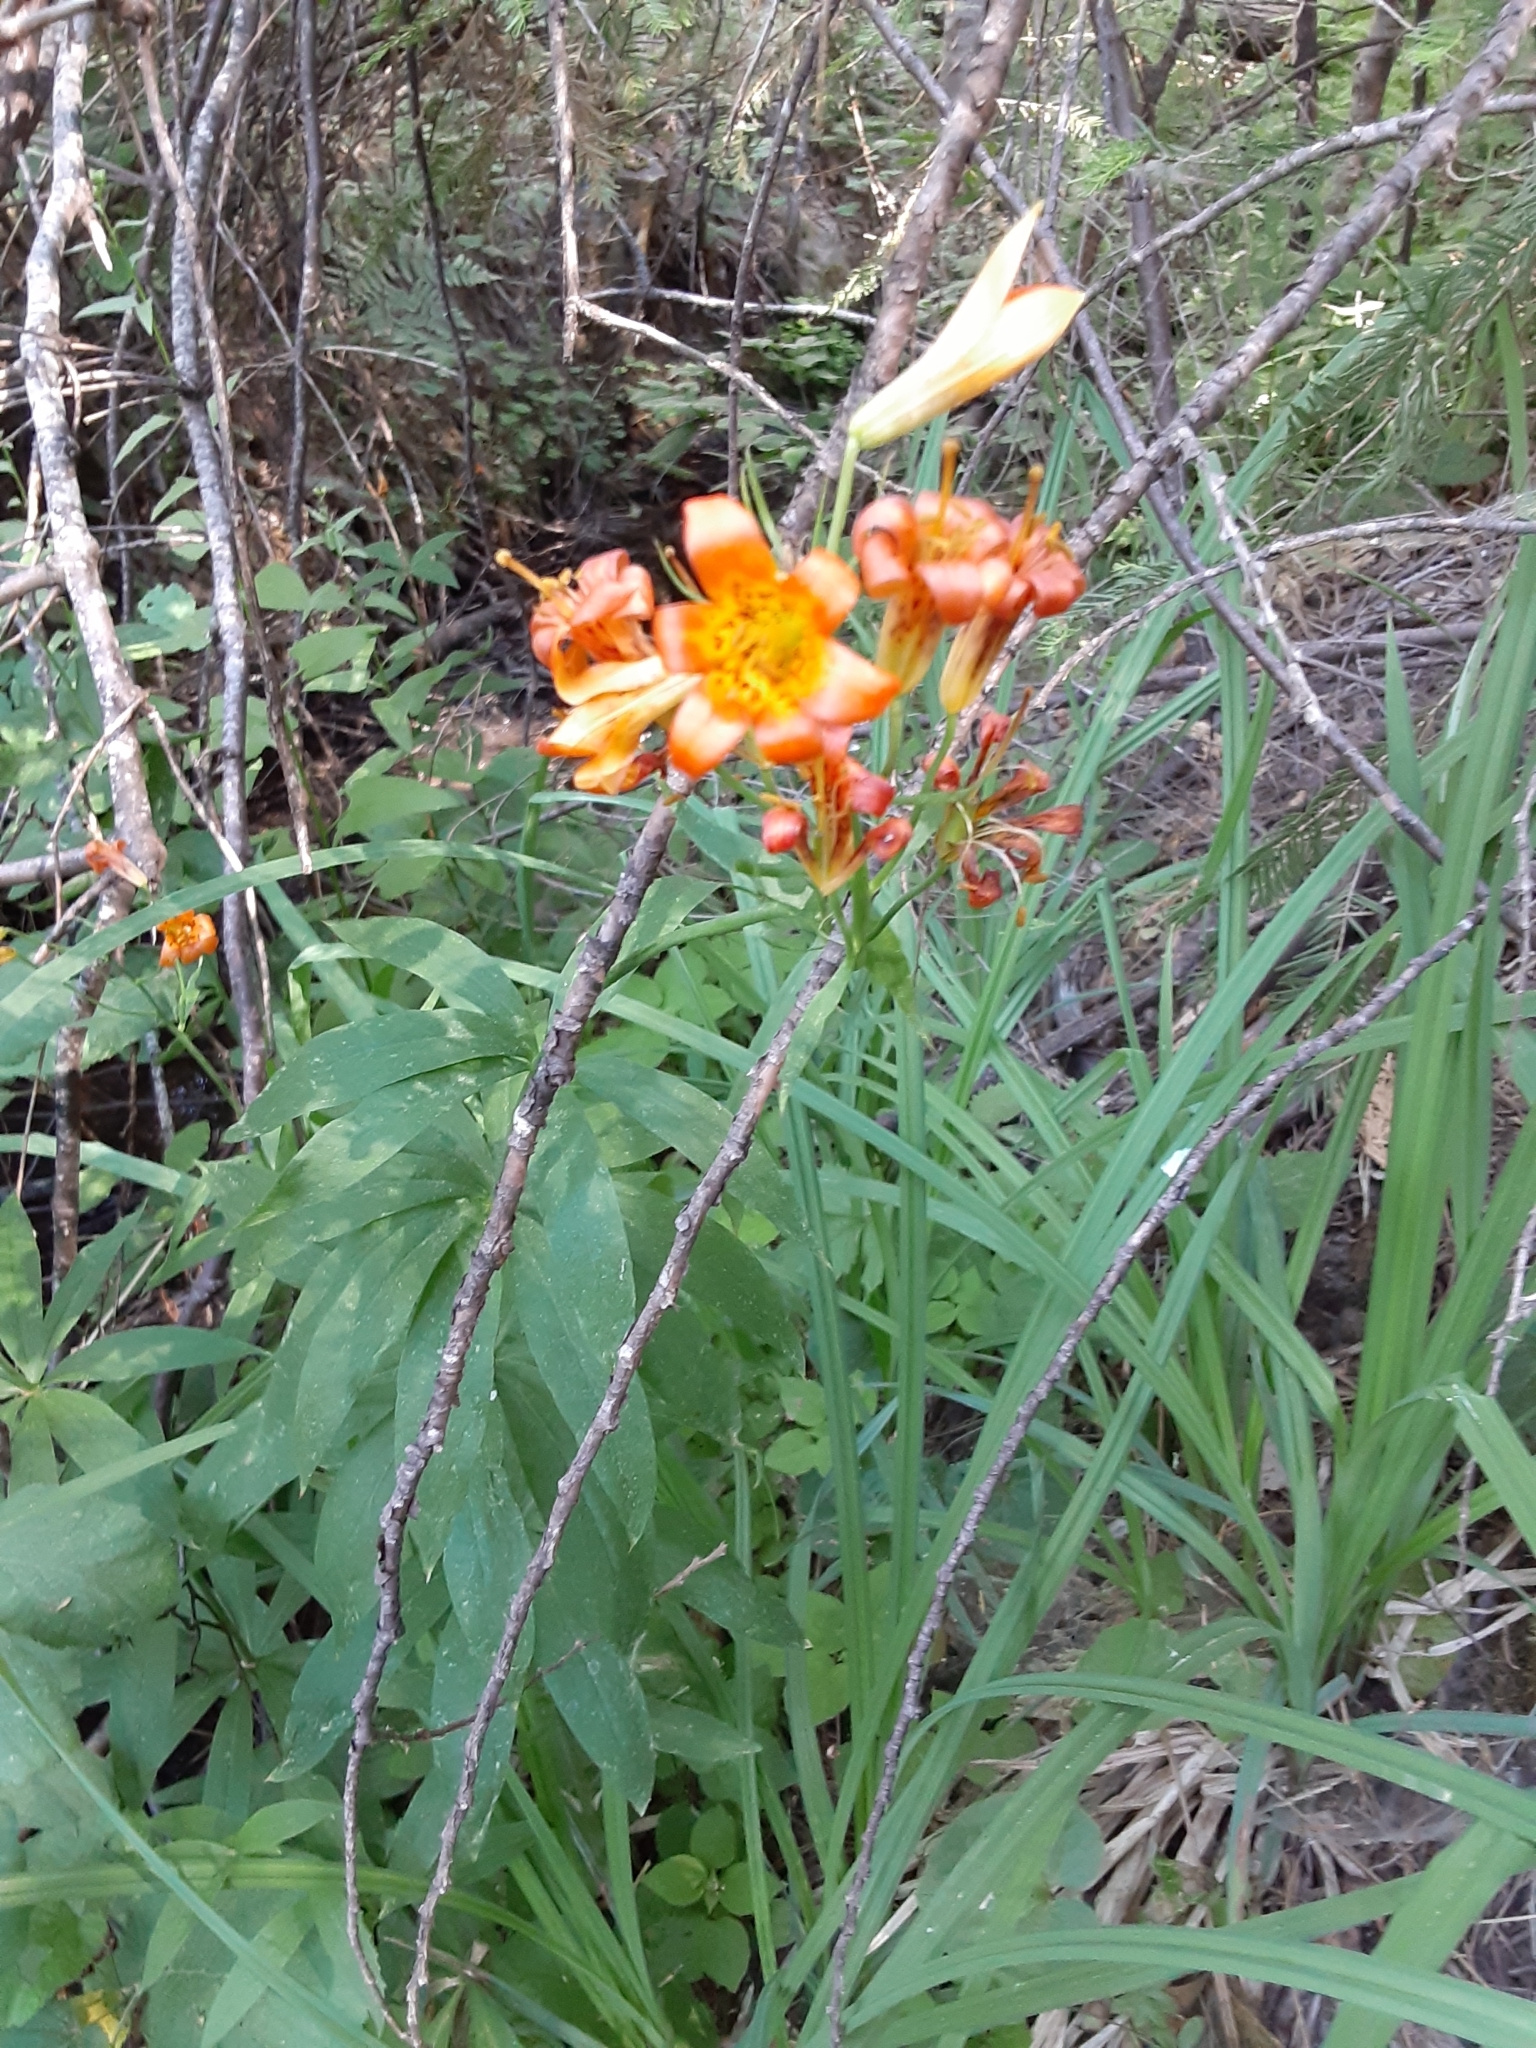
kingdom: Plantae
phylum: Tracheophyta
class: Liliopsida
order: Liliales
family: Liliaceae
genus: Lilium
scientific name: Lilium parvum
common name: Alpine lily
